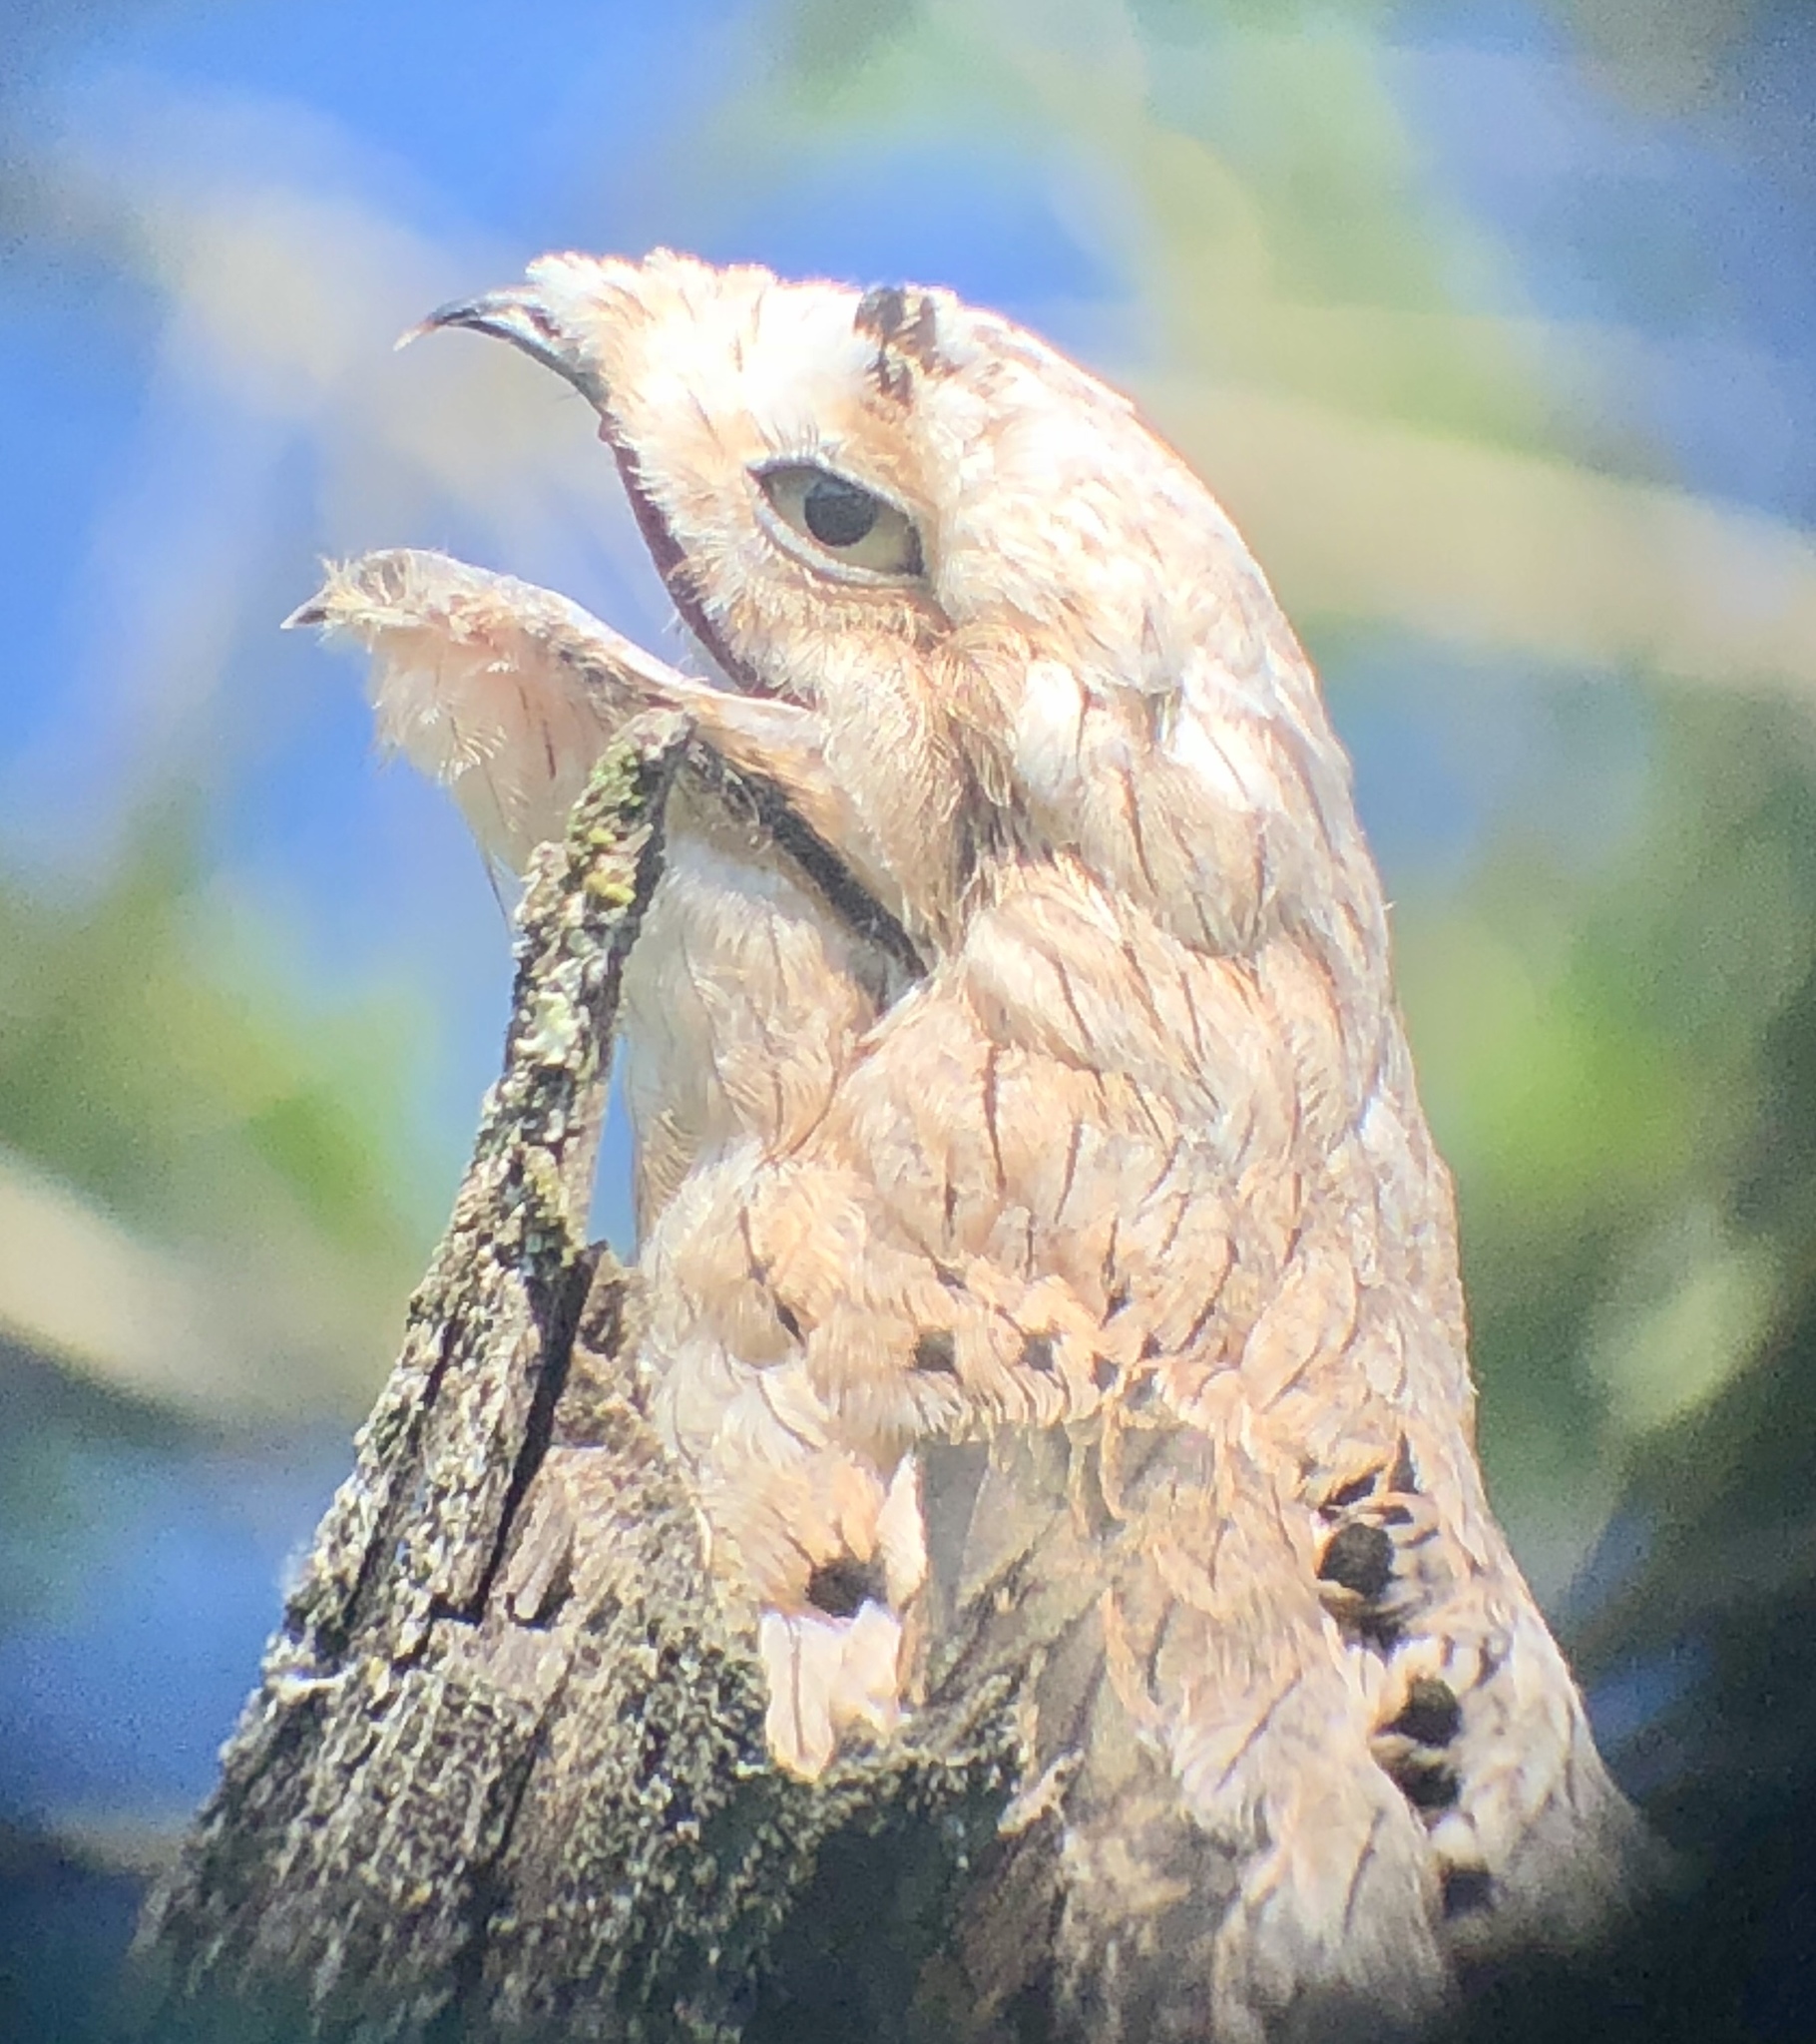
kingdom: Animalia
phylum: Chordata
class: Aves
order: Nyctibiiformes
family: Nyctibiidae
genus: Nyctibius
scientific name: Nyctibius griseus
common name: Common potoo
